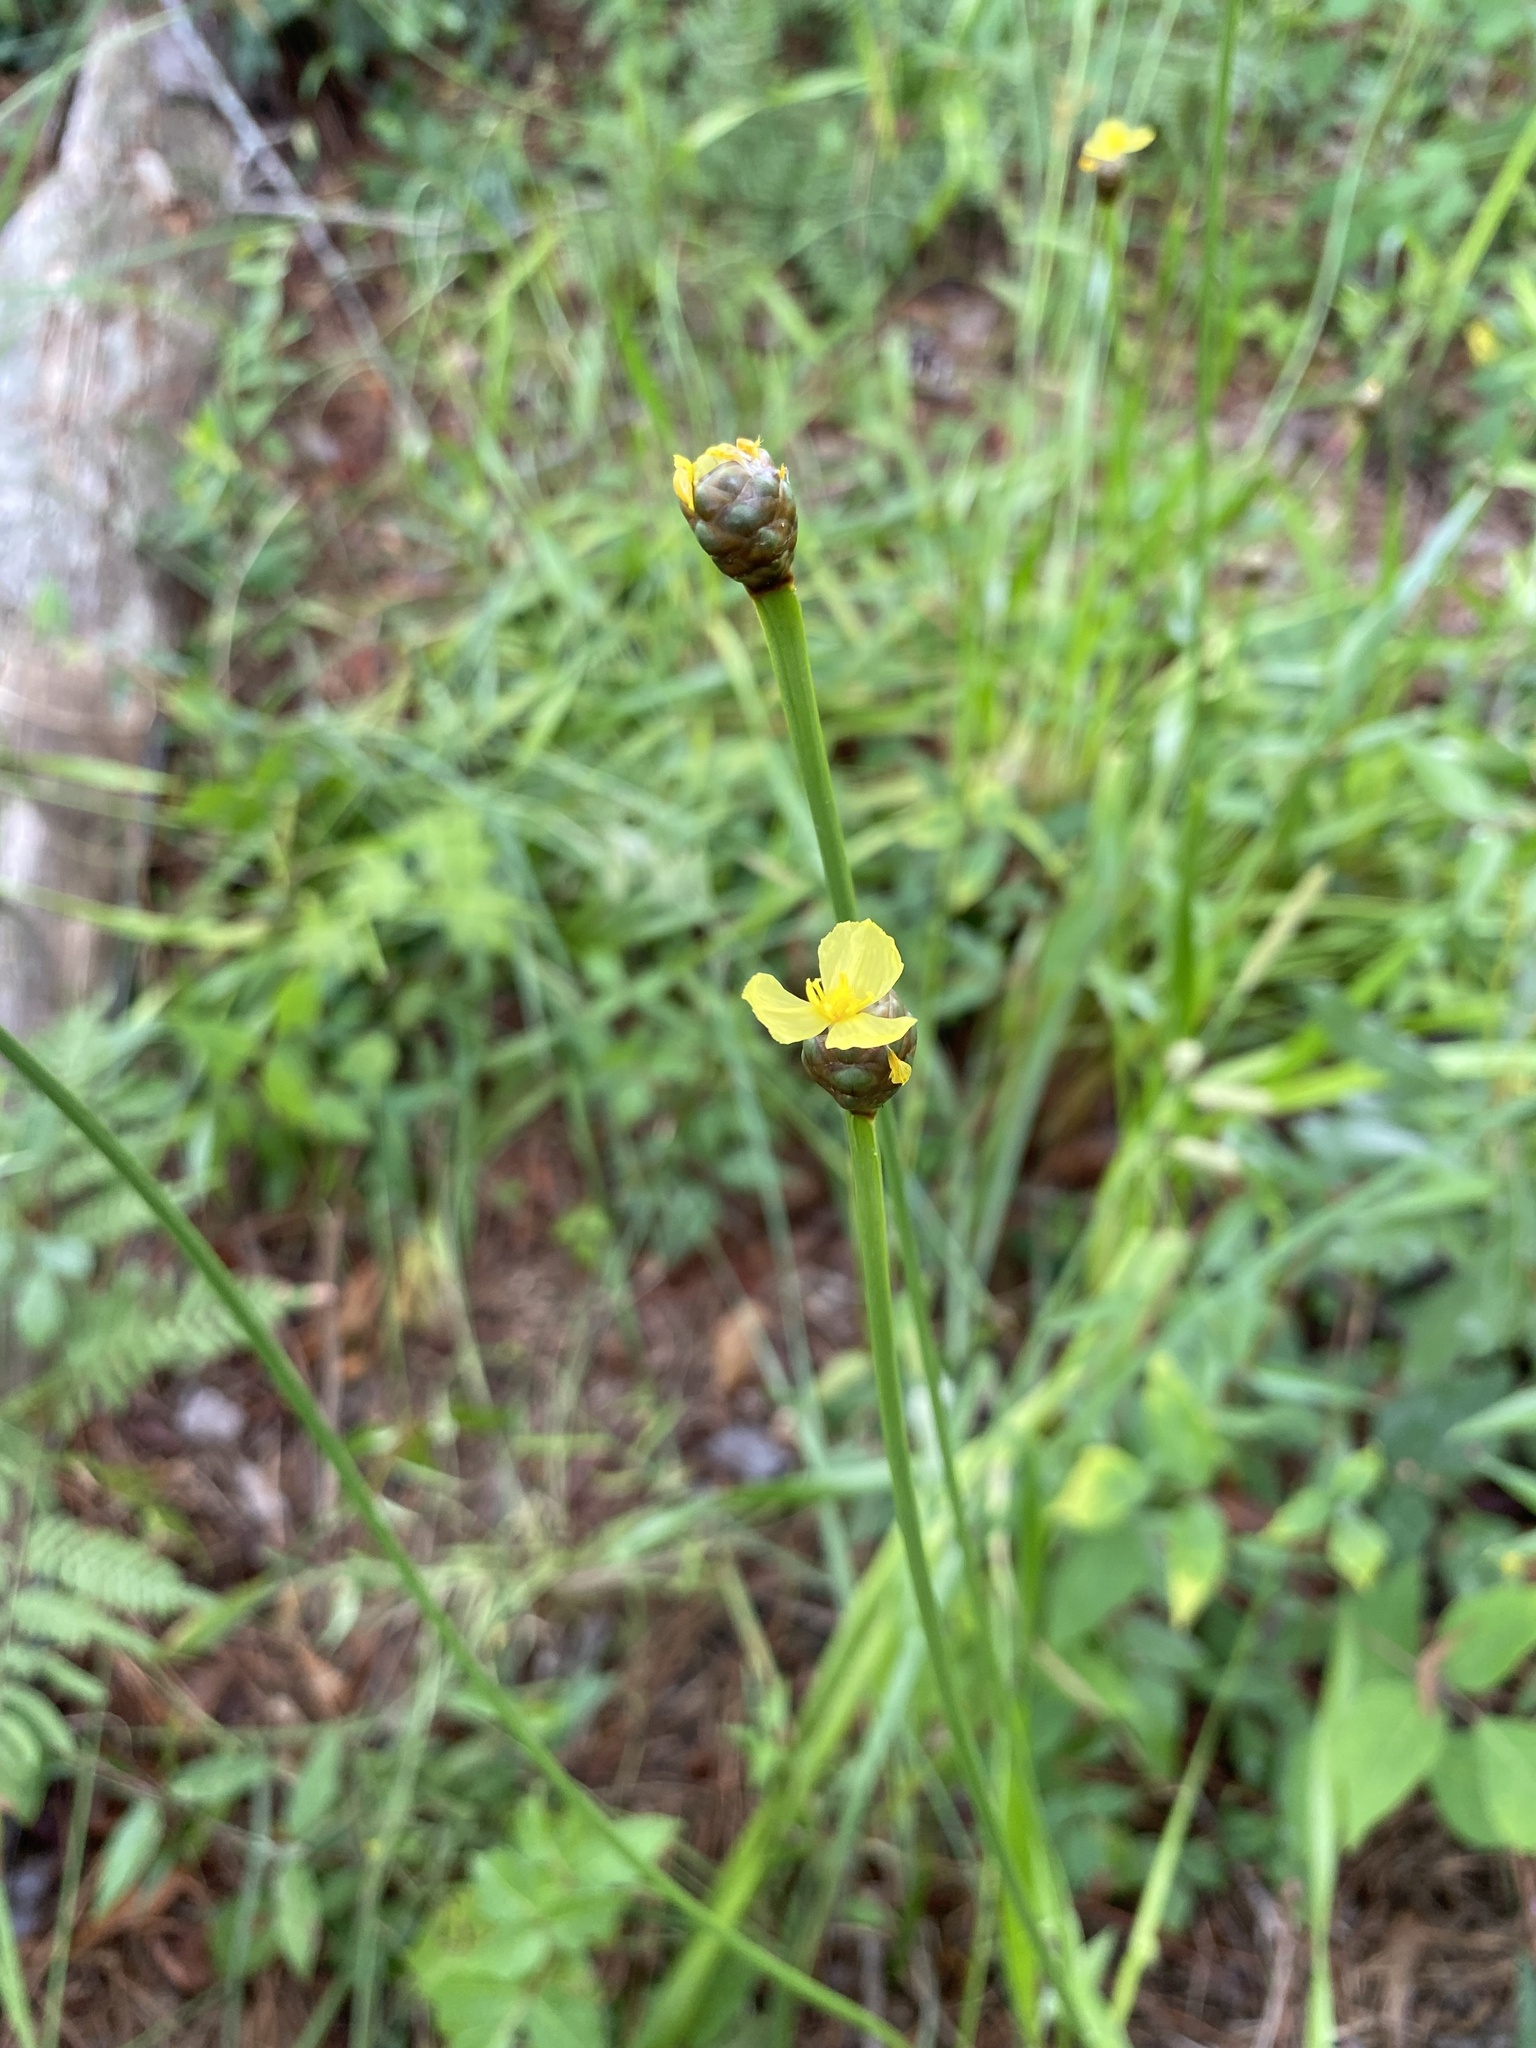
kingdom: Plantae
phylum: Tracheophyta
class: Liliopsida
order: Poales
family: Xyridaceae
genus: Xyris
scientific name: Xyris platylepis
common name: Tall yelloweyed grass
